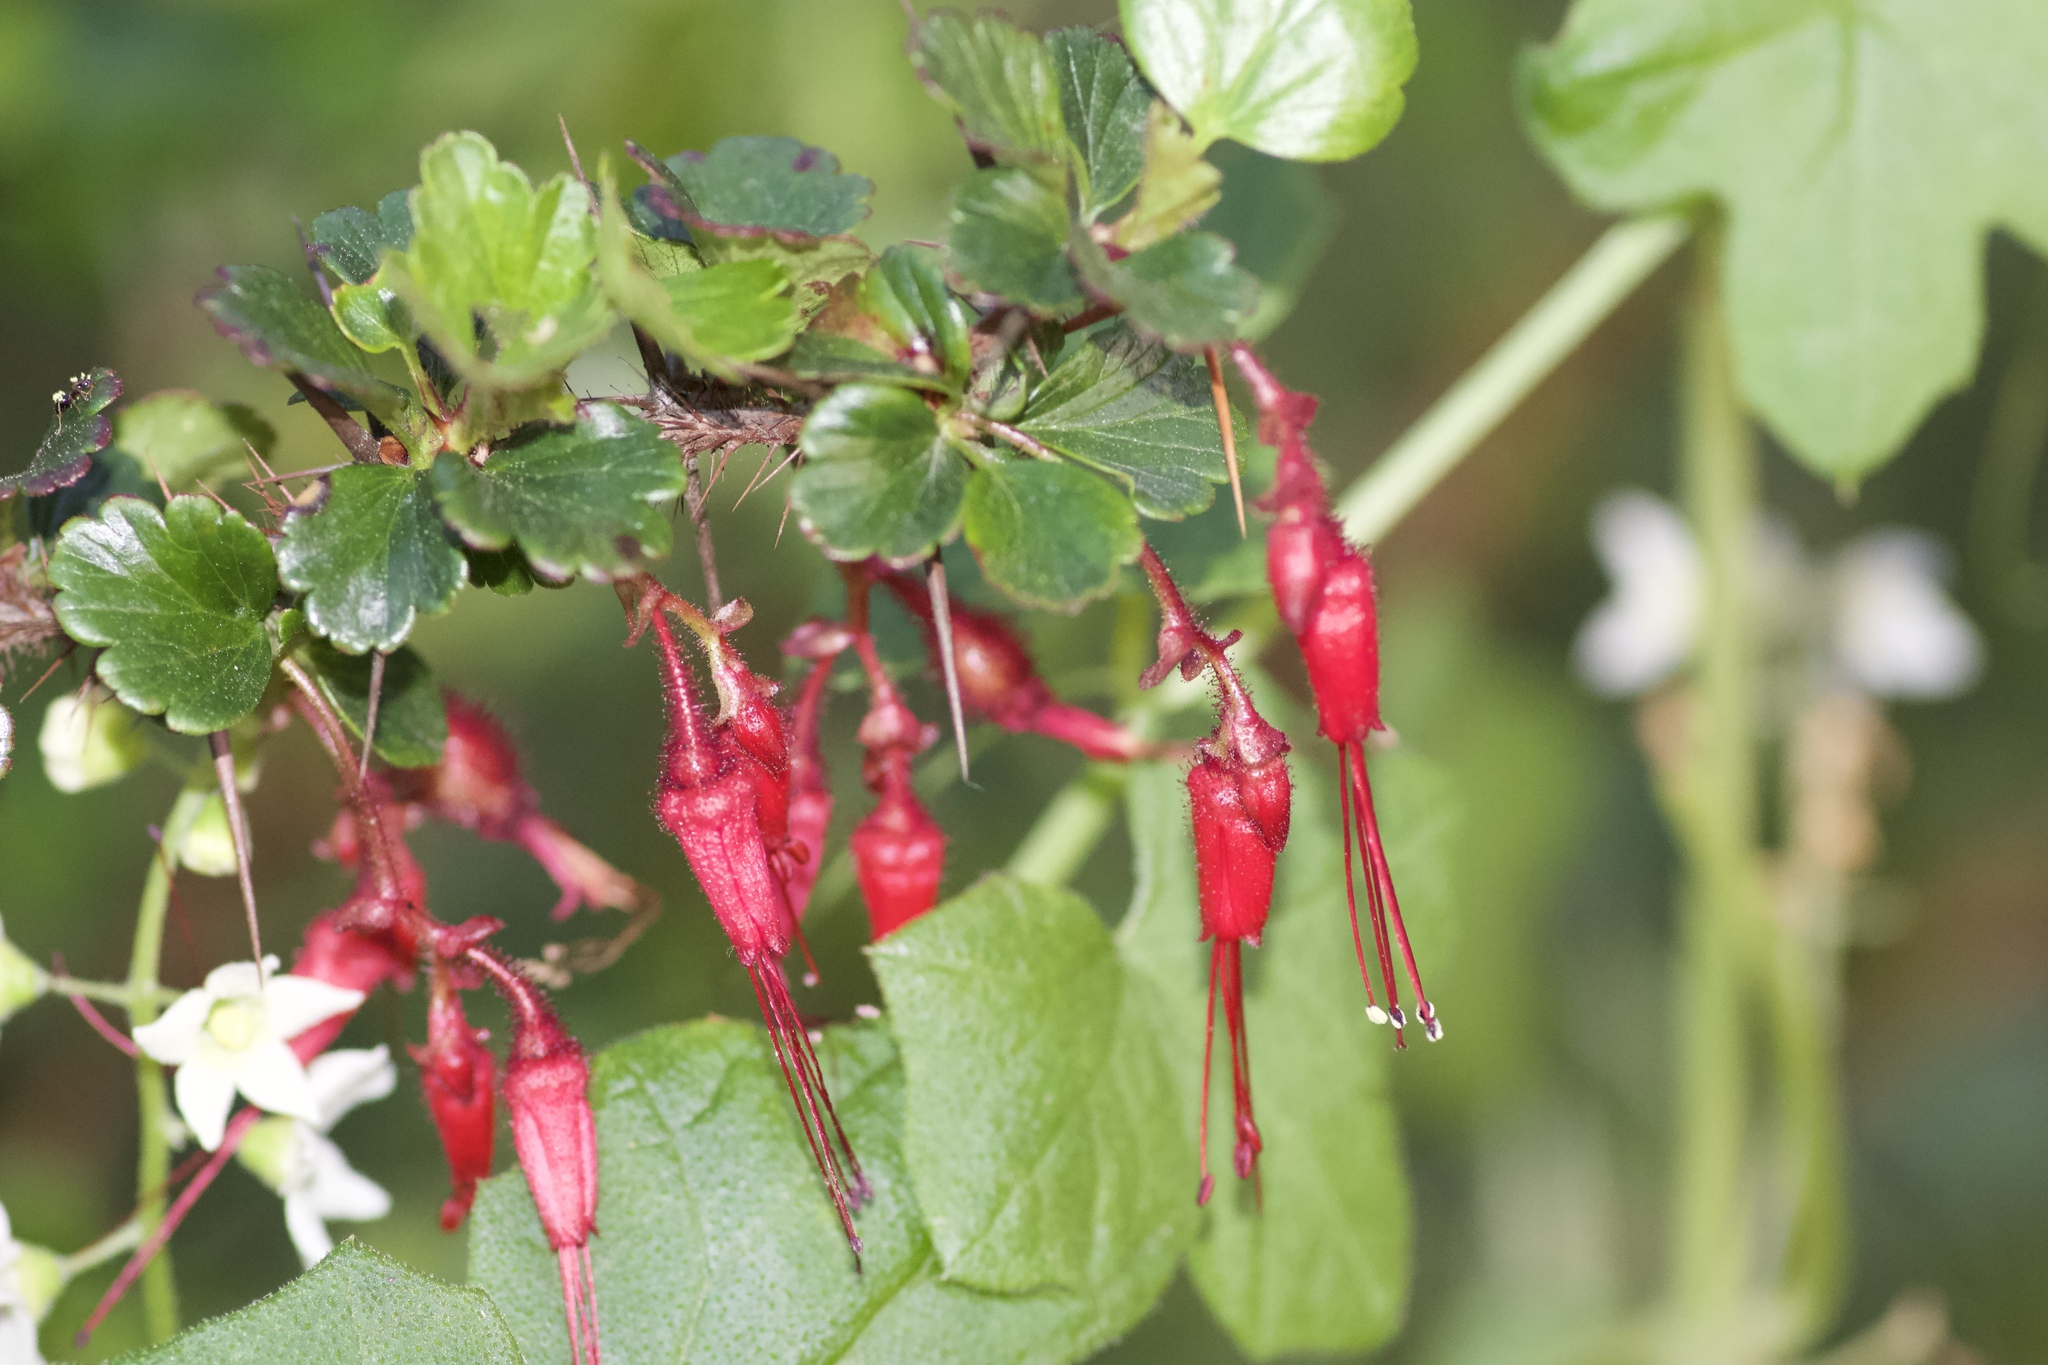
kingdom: Plantae
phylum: Tracheophyta
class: Magnoliopsida
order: Saxifragales
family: Grossulariaceae
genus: Ribes
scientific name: Ribes speciosum
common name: Fuchsia-flower gooseberry
